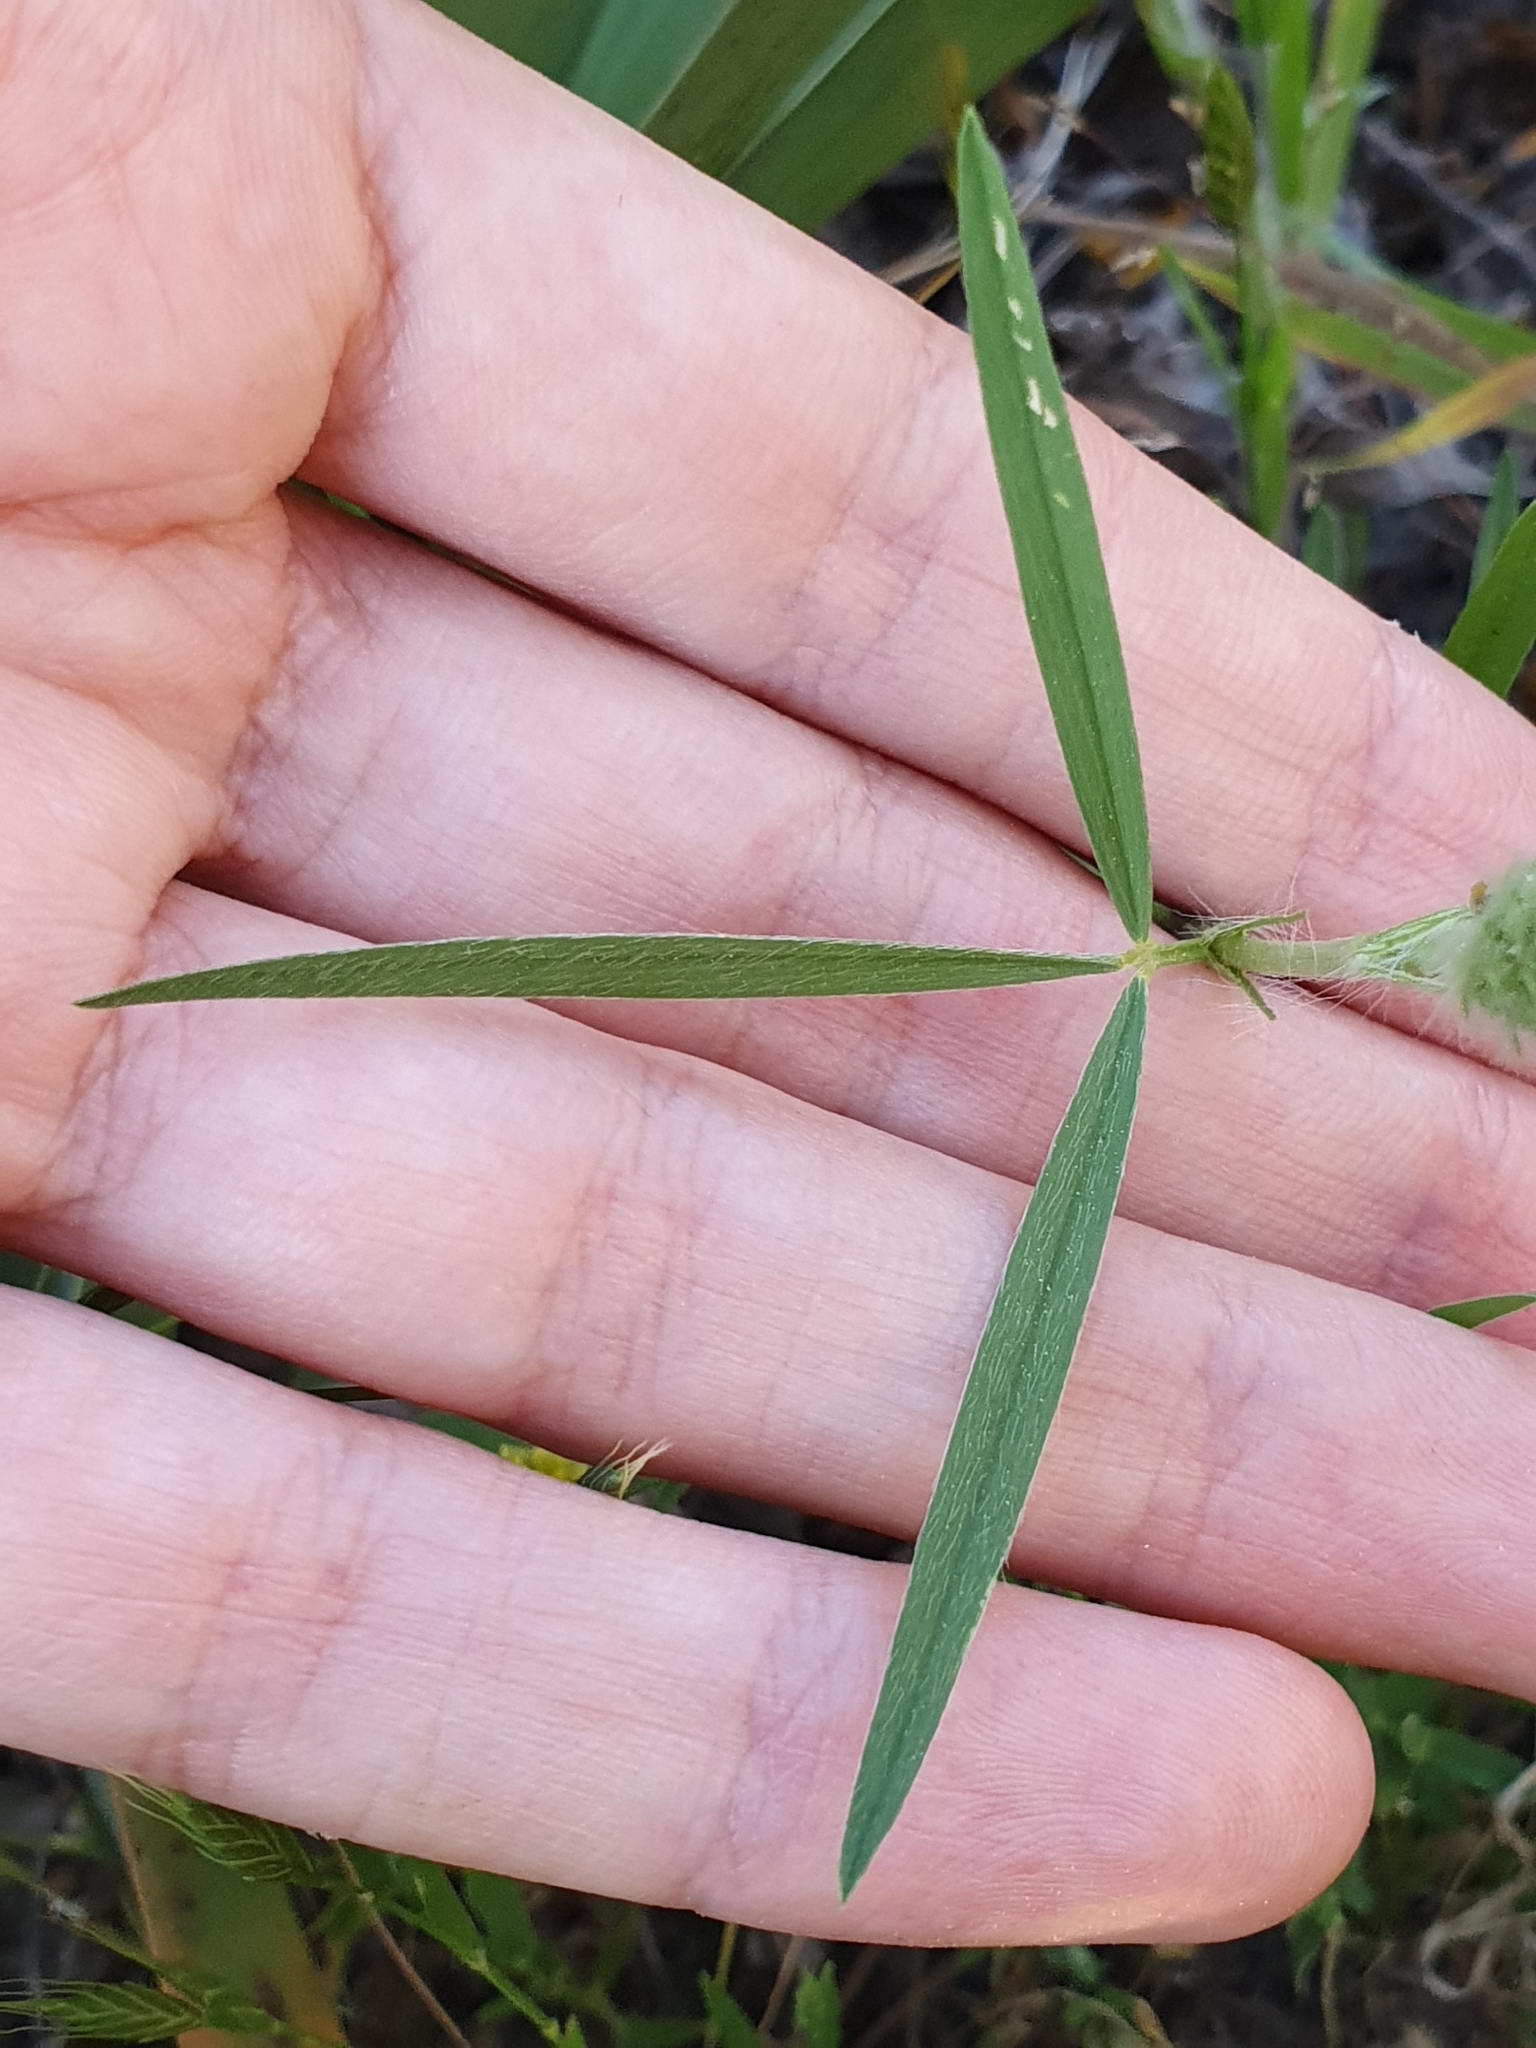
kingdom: Plantae
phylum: Tracheophyta
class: Magnoliopsida
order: Fabales
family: Fabaceae
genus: Trifolium
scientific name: Trifolium angustifolium
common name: Narrow clover
